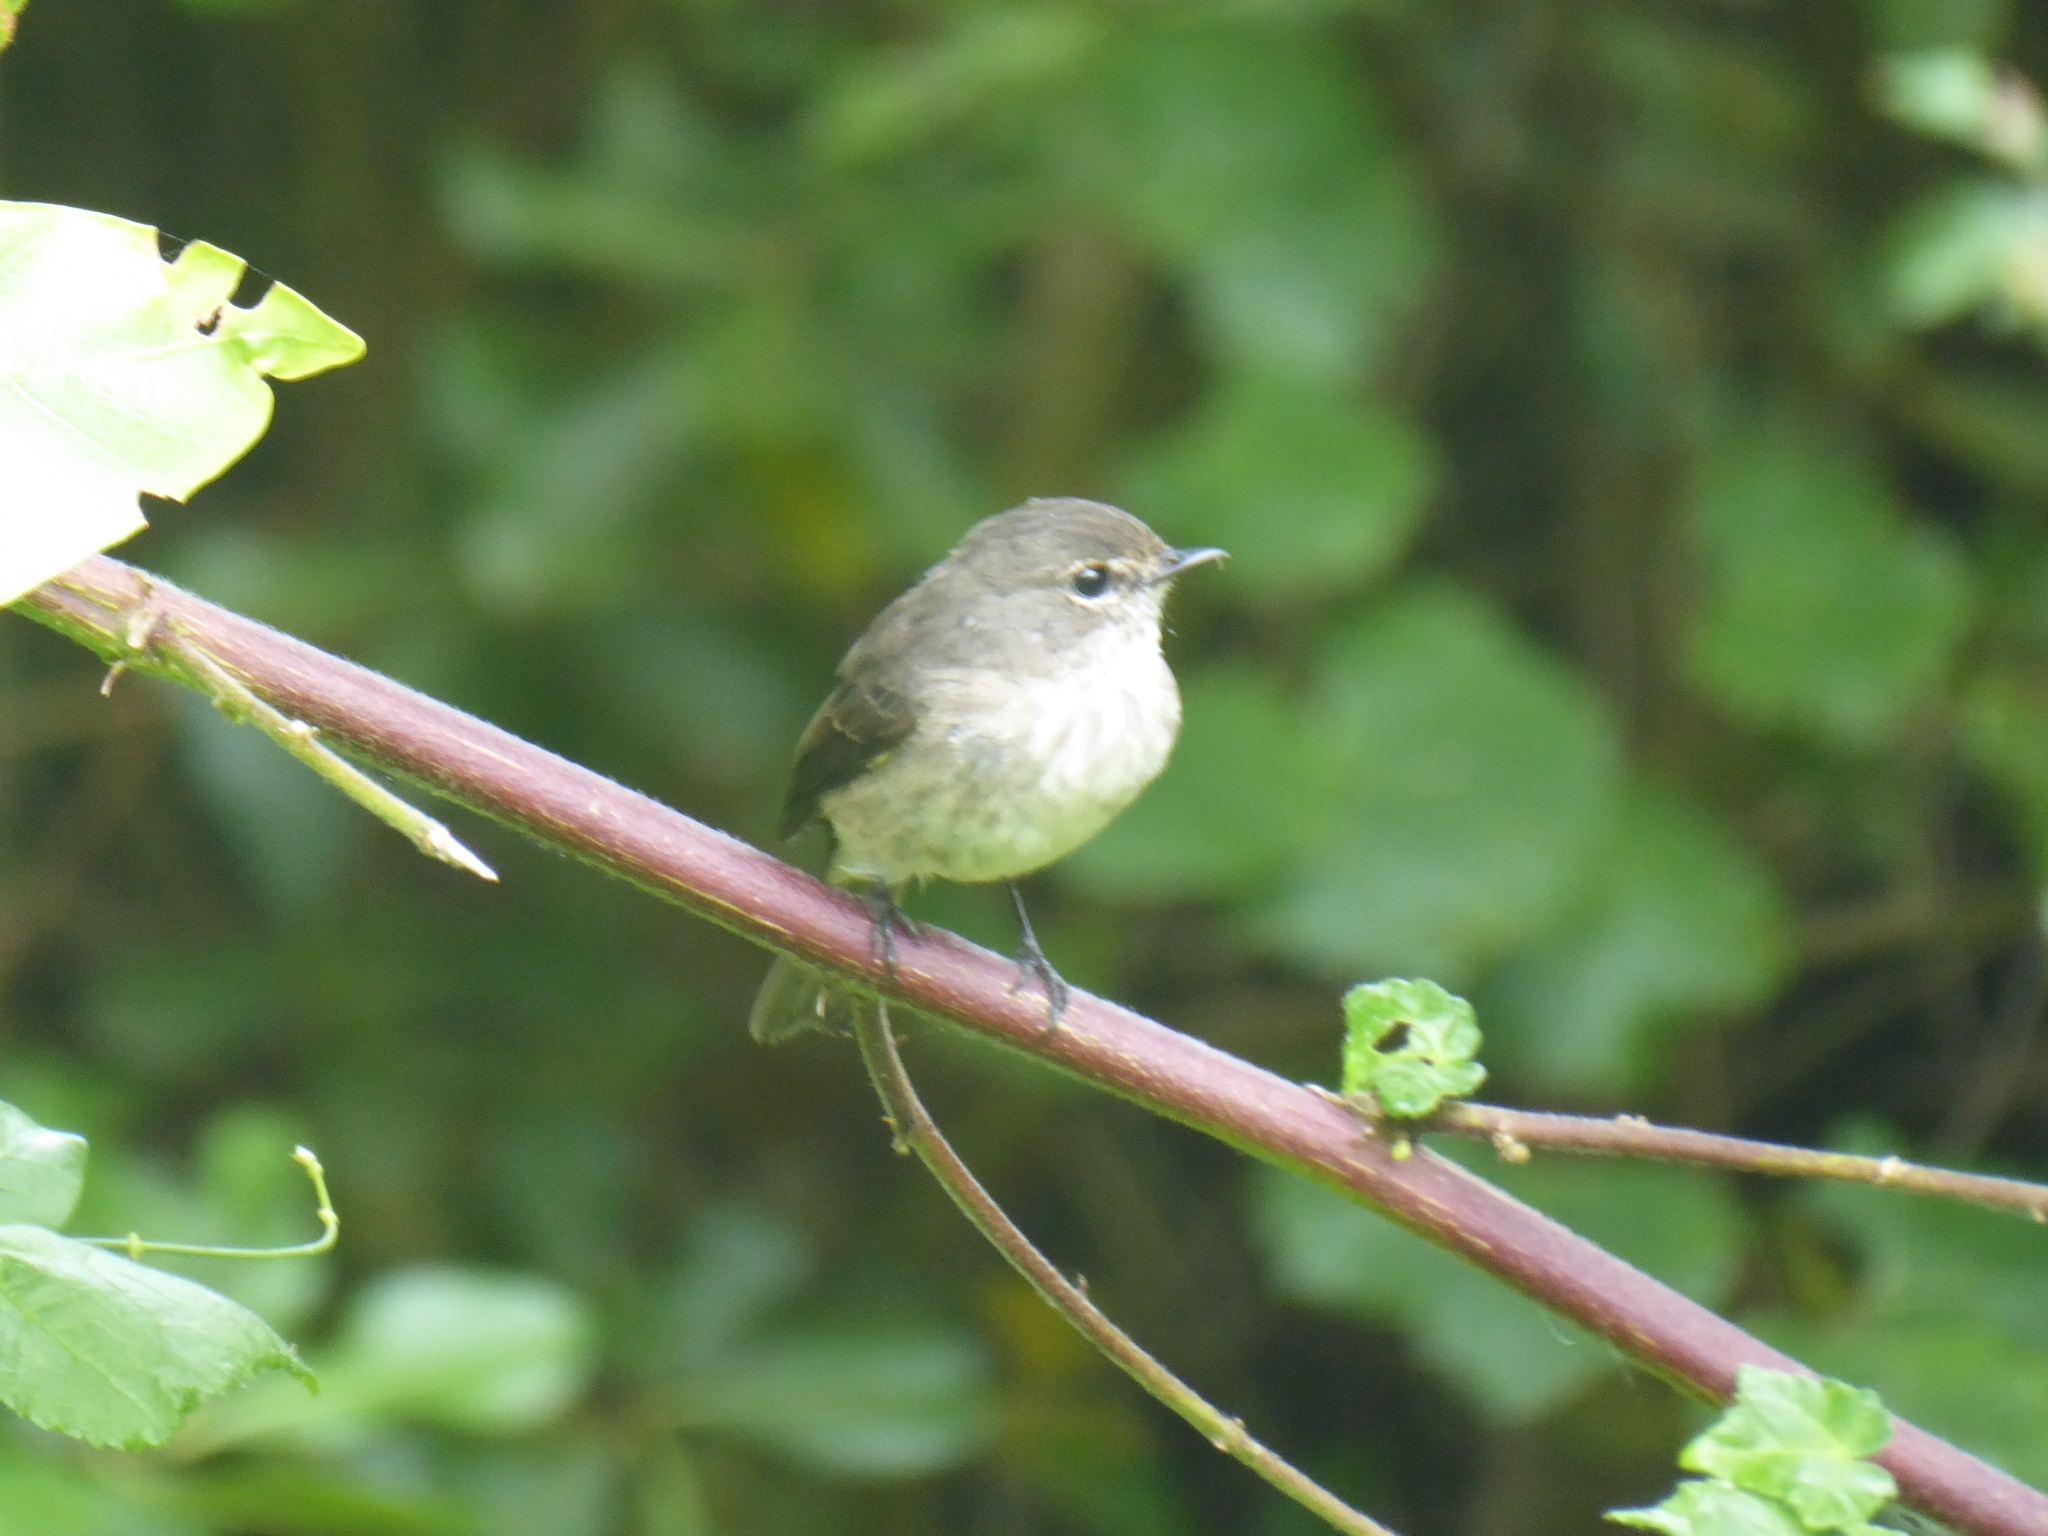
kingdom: Animalia
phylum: Chordata
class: Aves
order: Passeriformes
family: Muscicapidae
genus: Muscicapa
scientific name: Muscicapa adusta
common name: African dusky flycatcher
